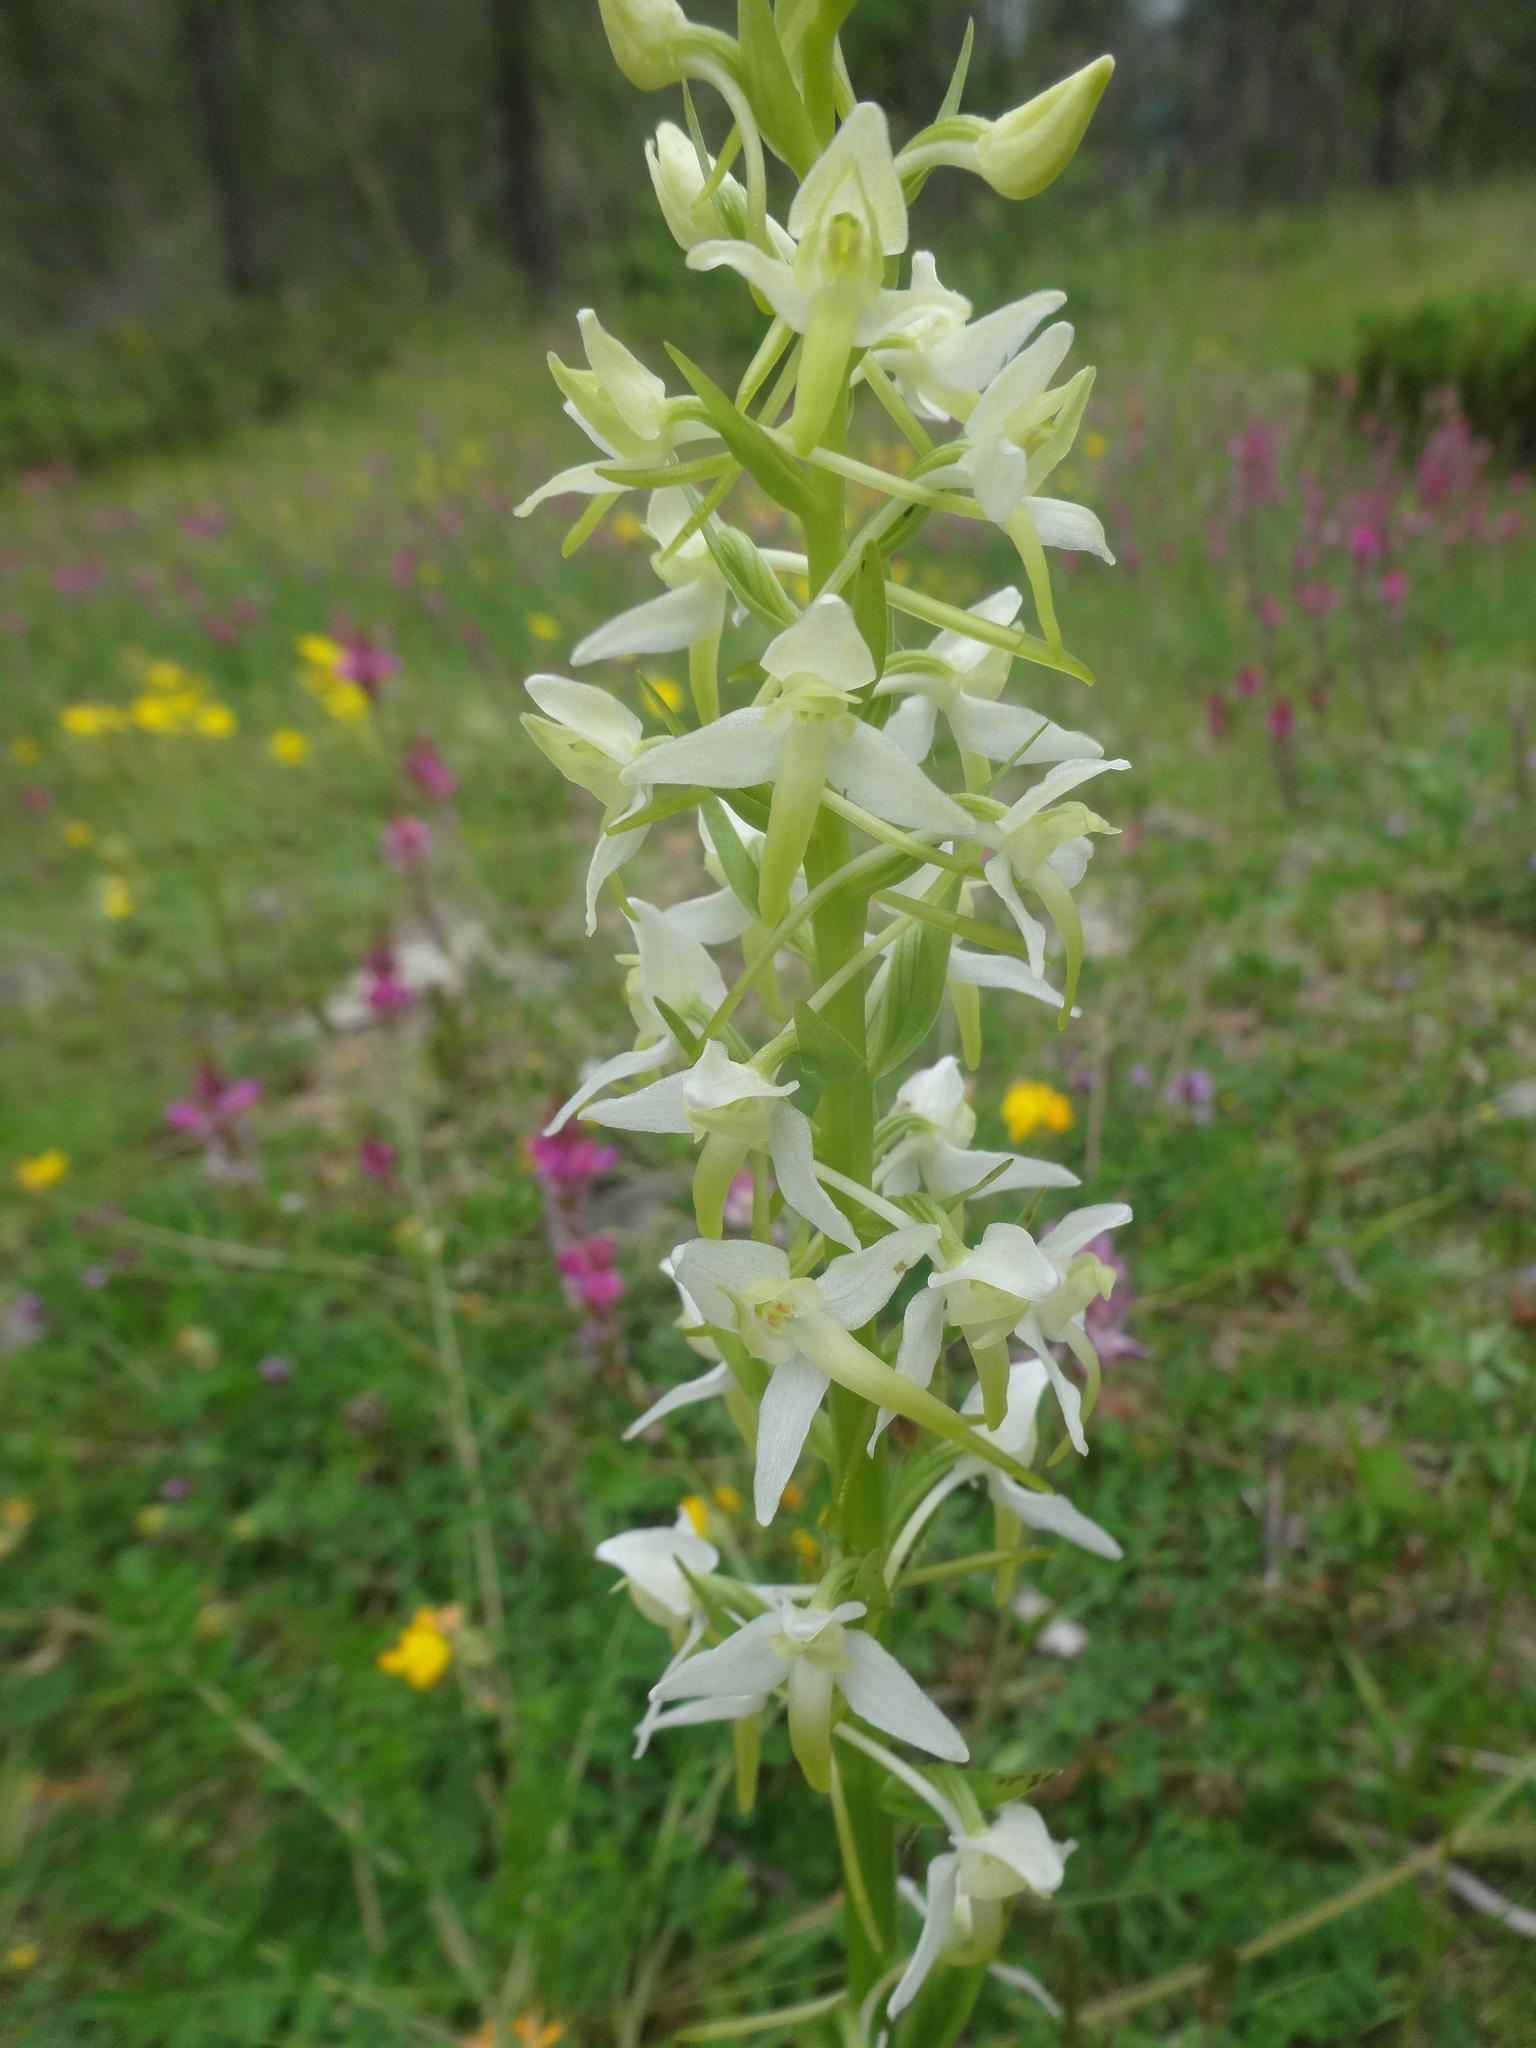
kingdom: Plantae
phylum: Tracheophyta
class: Liliopsida
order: Asparagales
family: Orchidaceae
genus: Platanthera
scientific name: Platanthera bifolia
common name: Lesser butterfly-orchid
